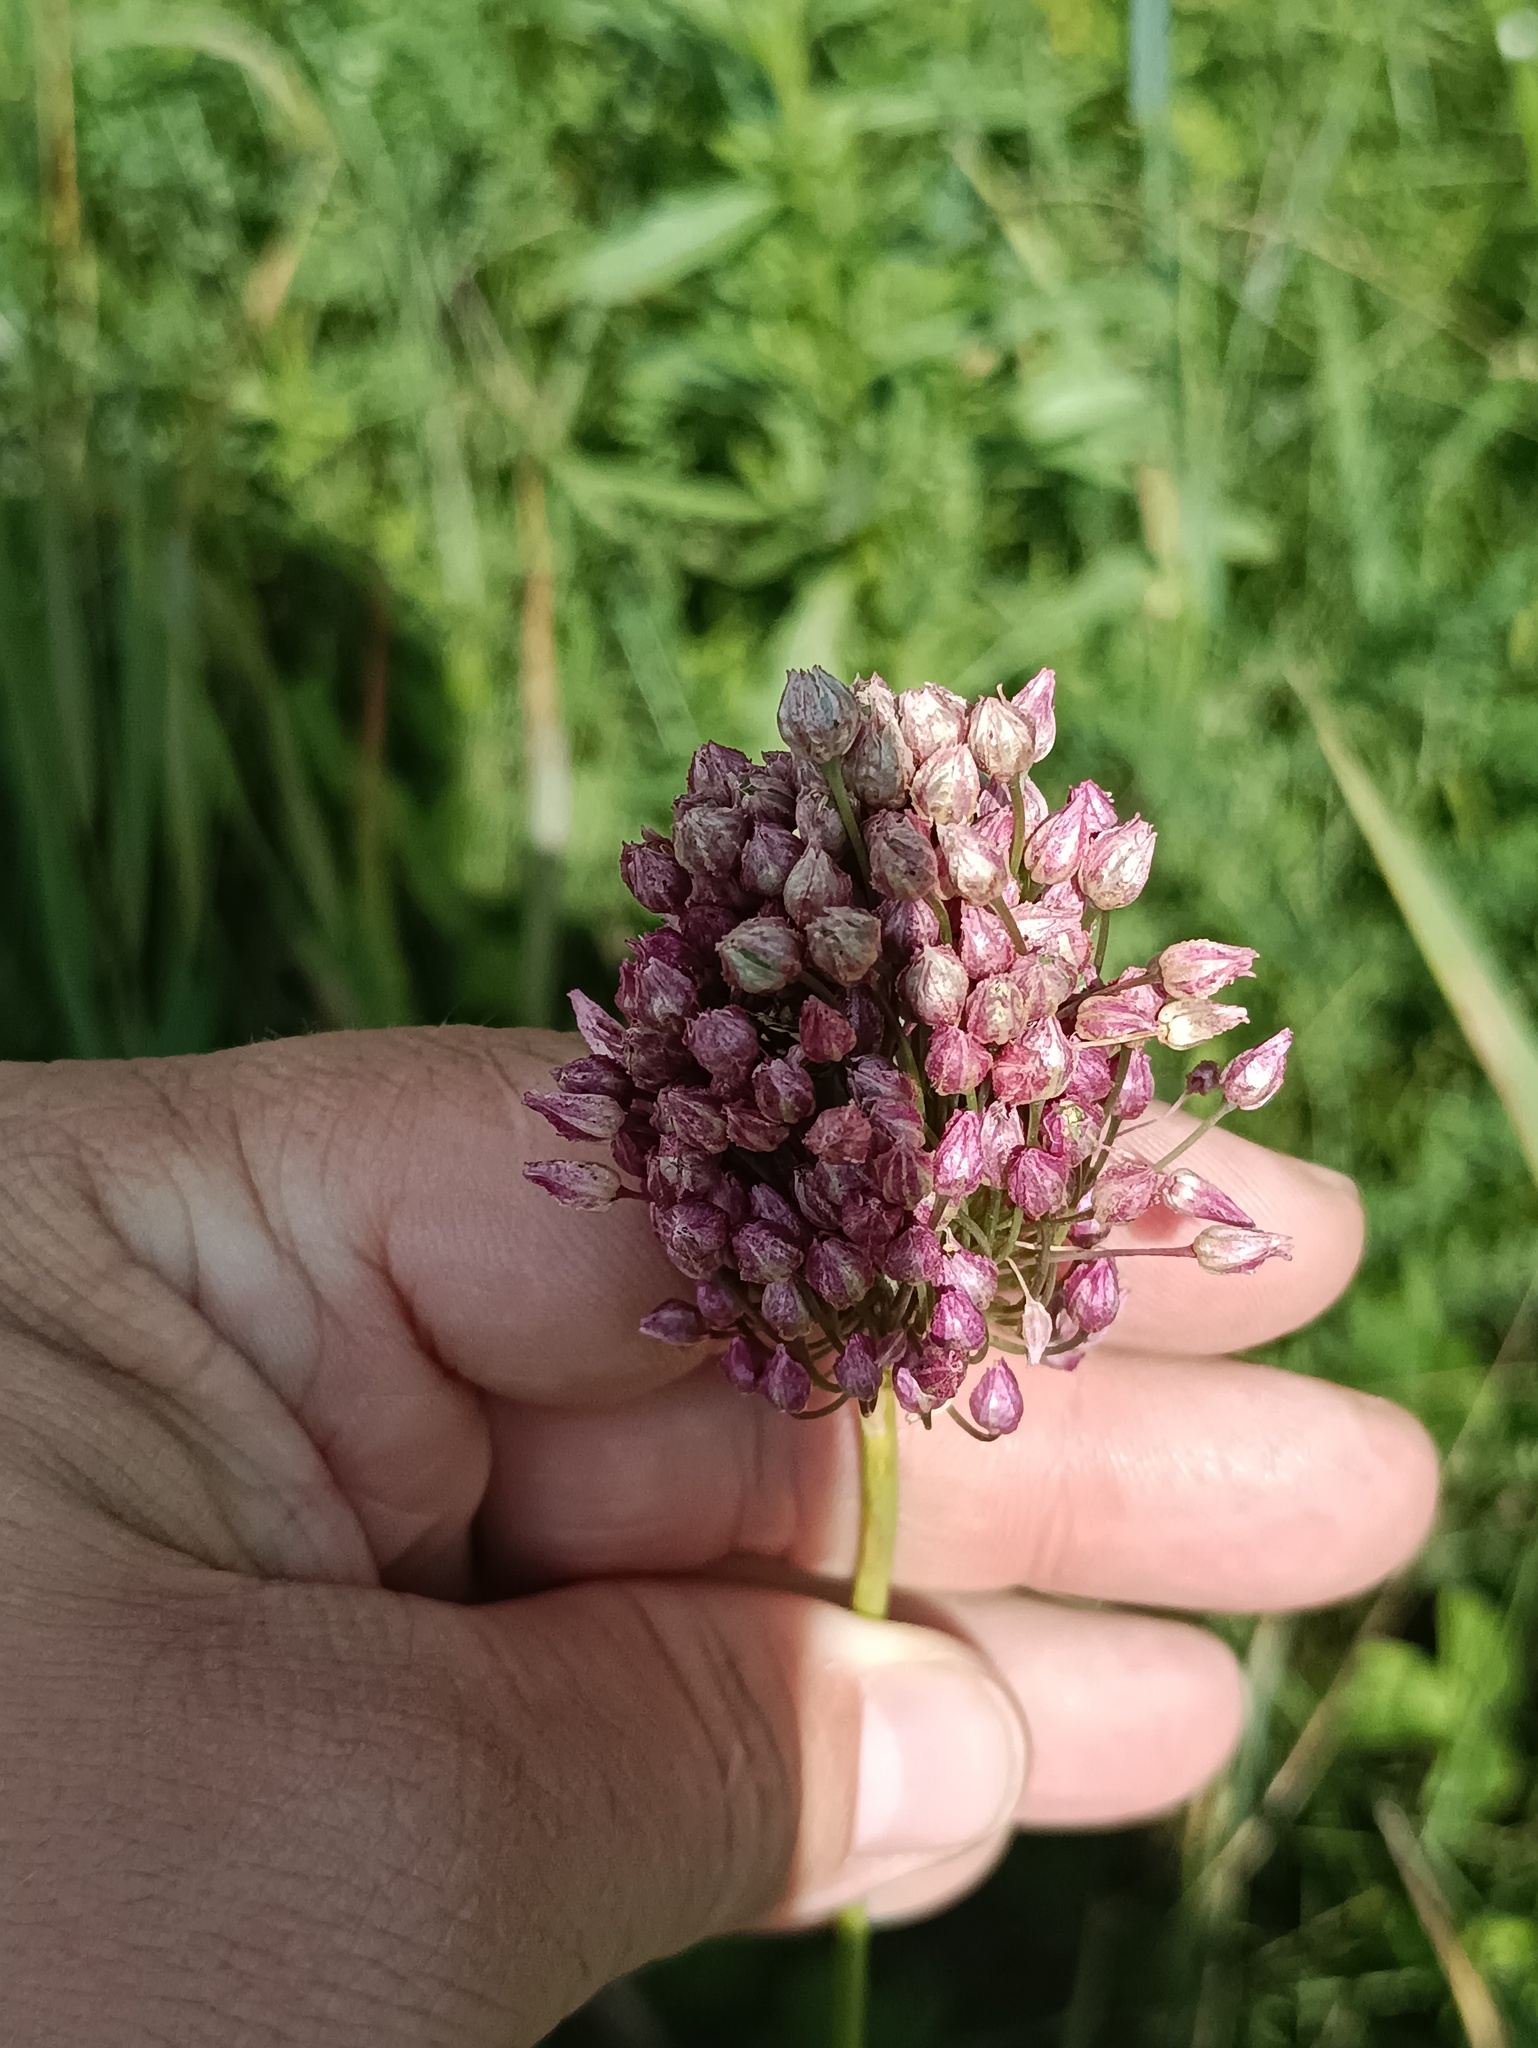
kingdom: Plantae
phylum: Tracheophyta
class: Liliopsida
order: Asparagales
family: Amaryllidaceae
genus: Allium
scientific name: Allium rotundum
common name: Sand leek
